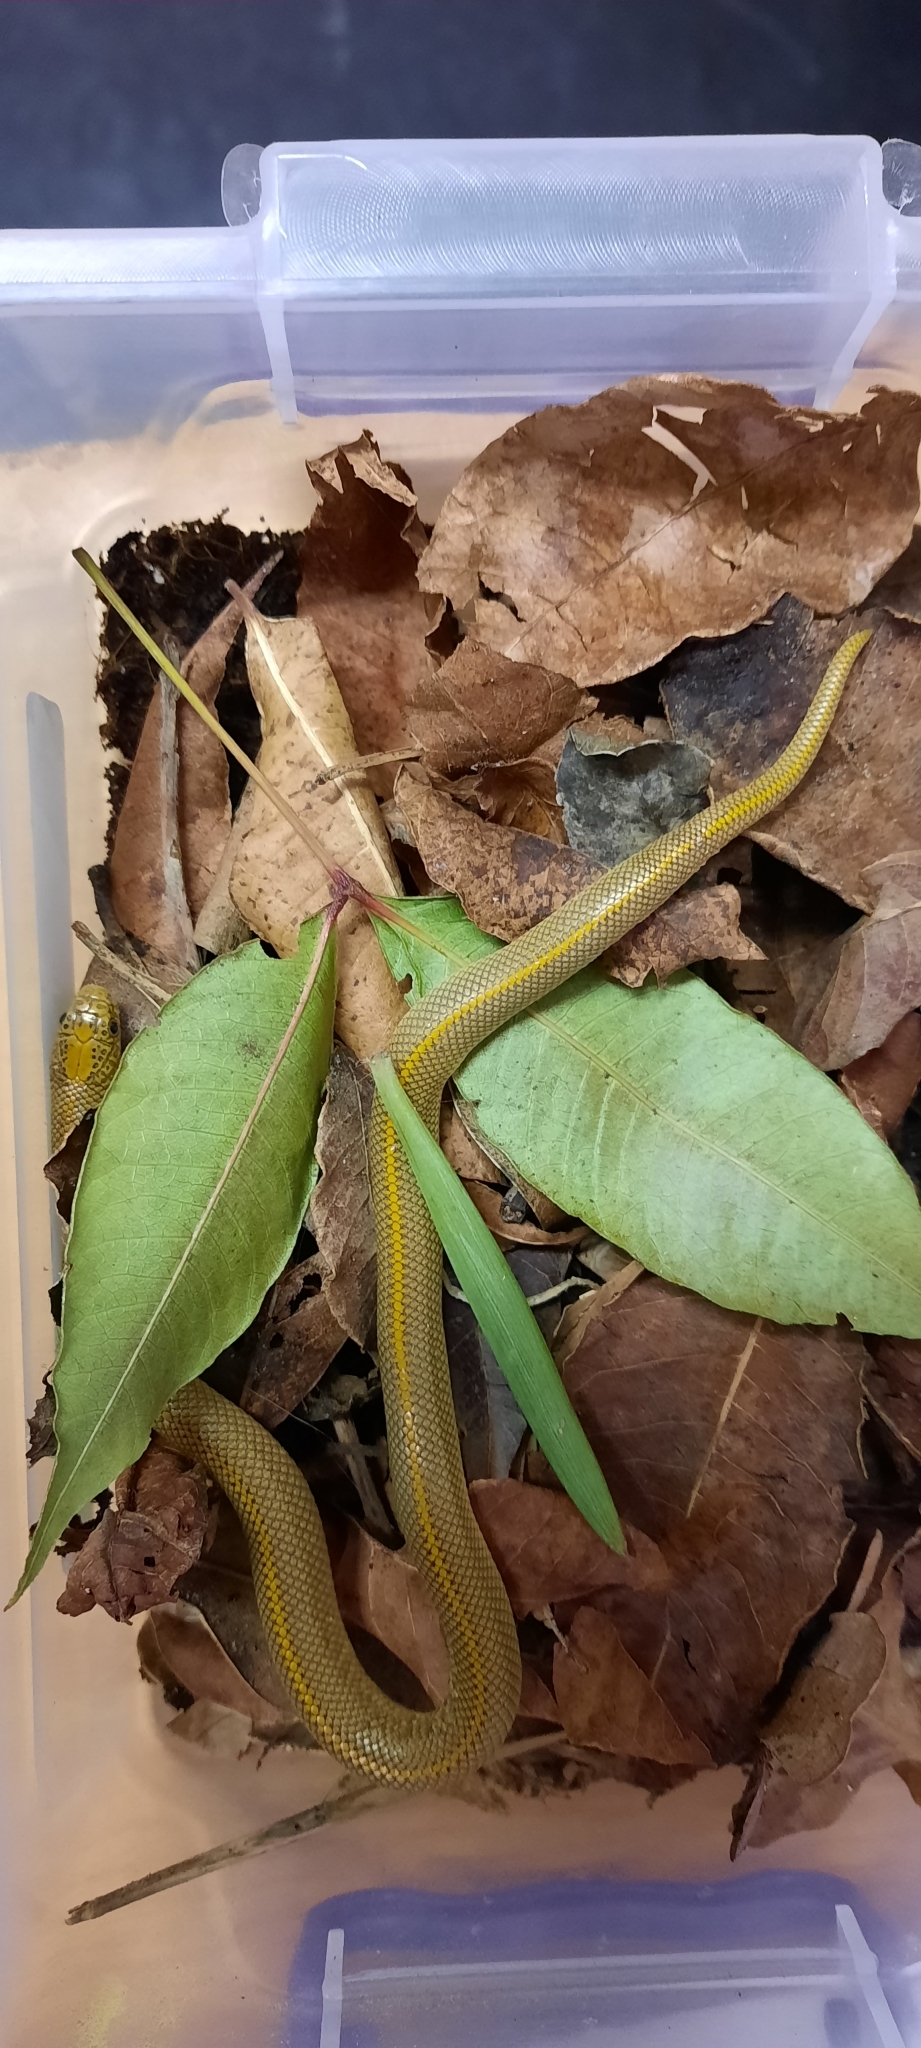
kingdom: Animalia
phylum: Chordata
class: Squamata
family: Lamprophiidae
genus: Lamprophis
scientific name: Lamprophis aurora
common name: Aurora house snake
